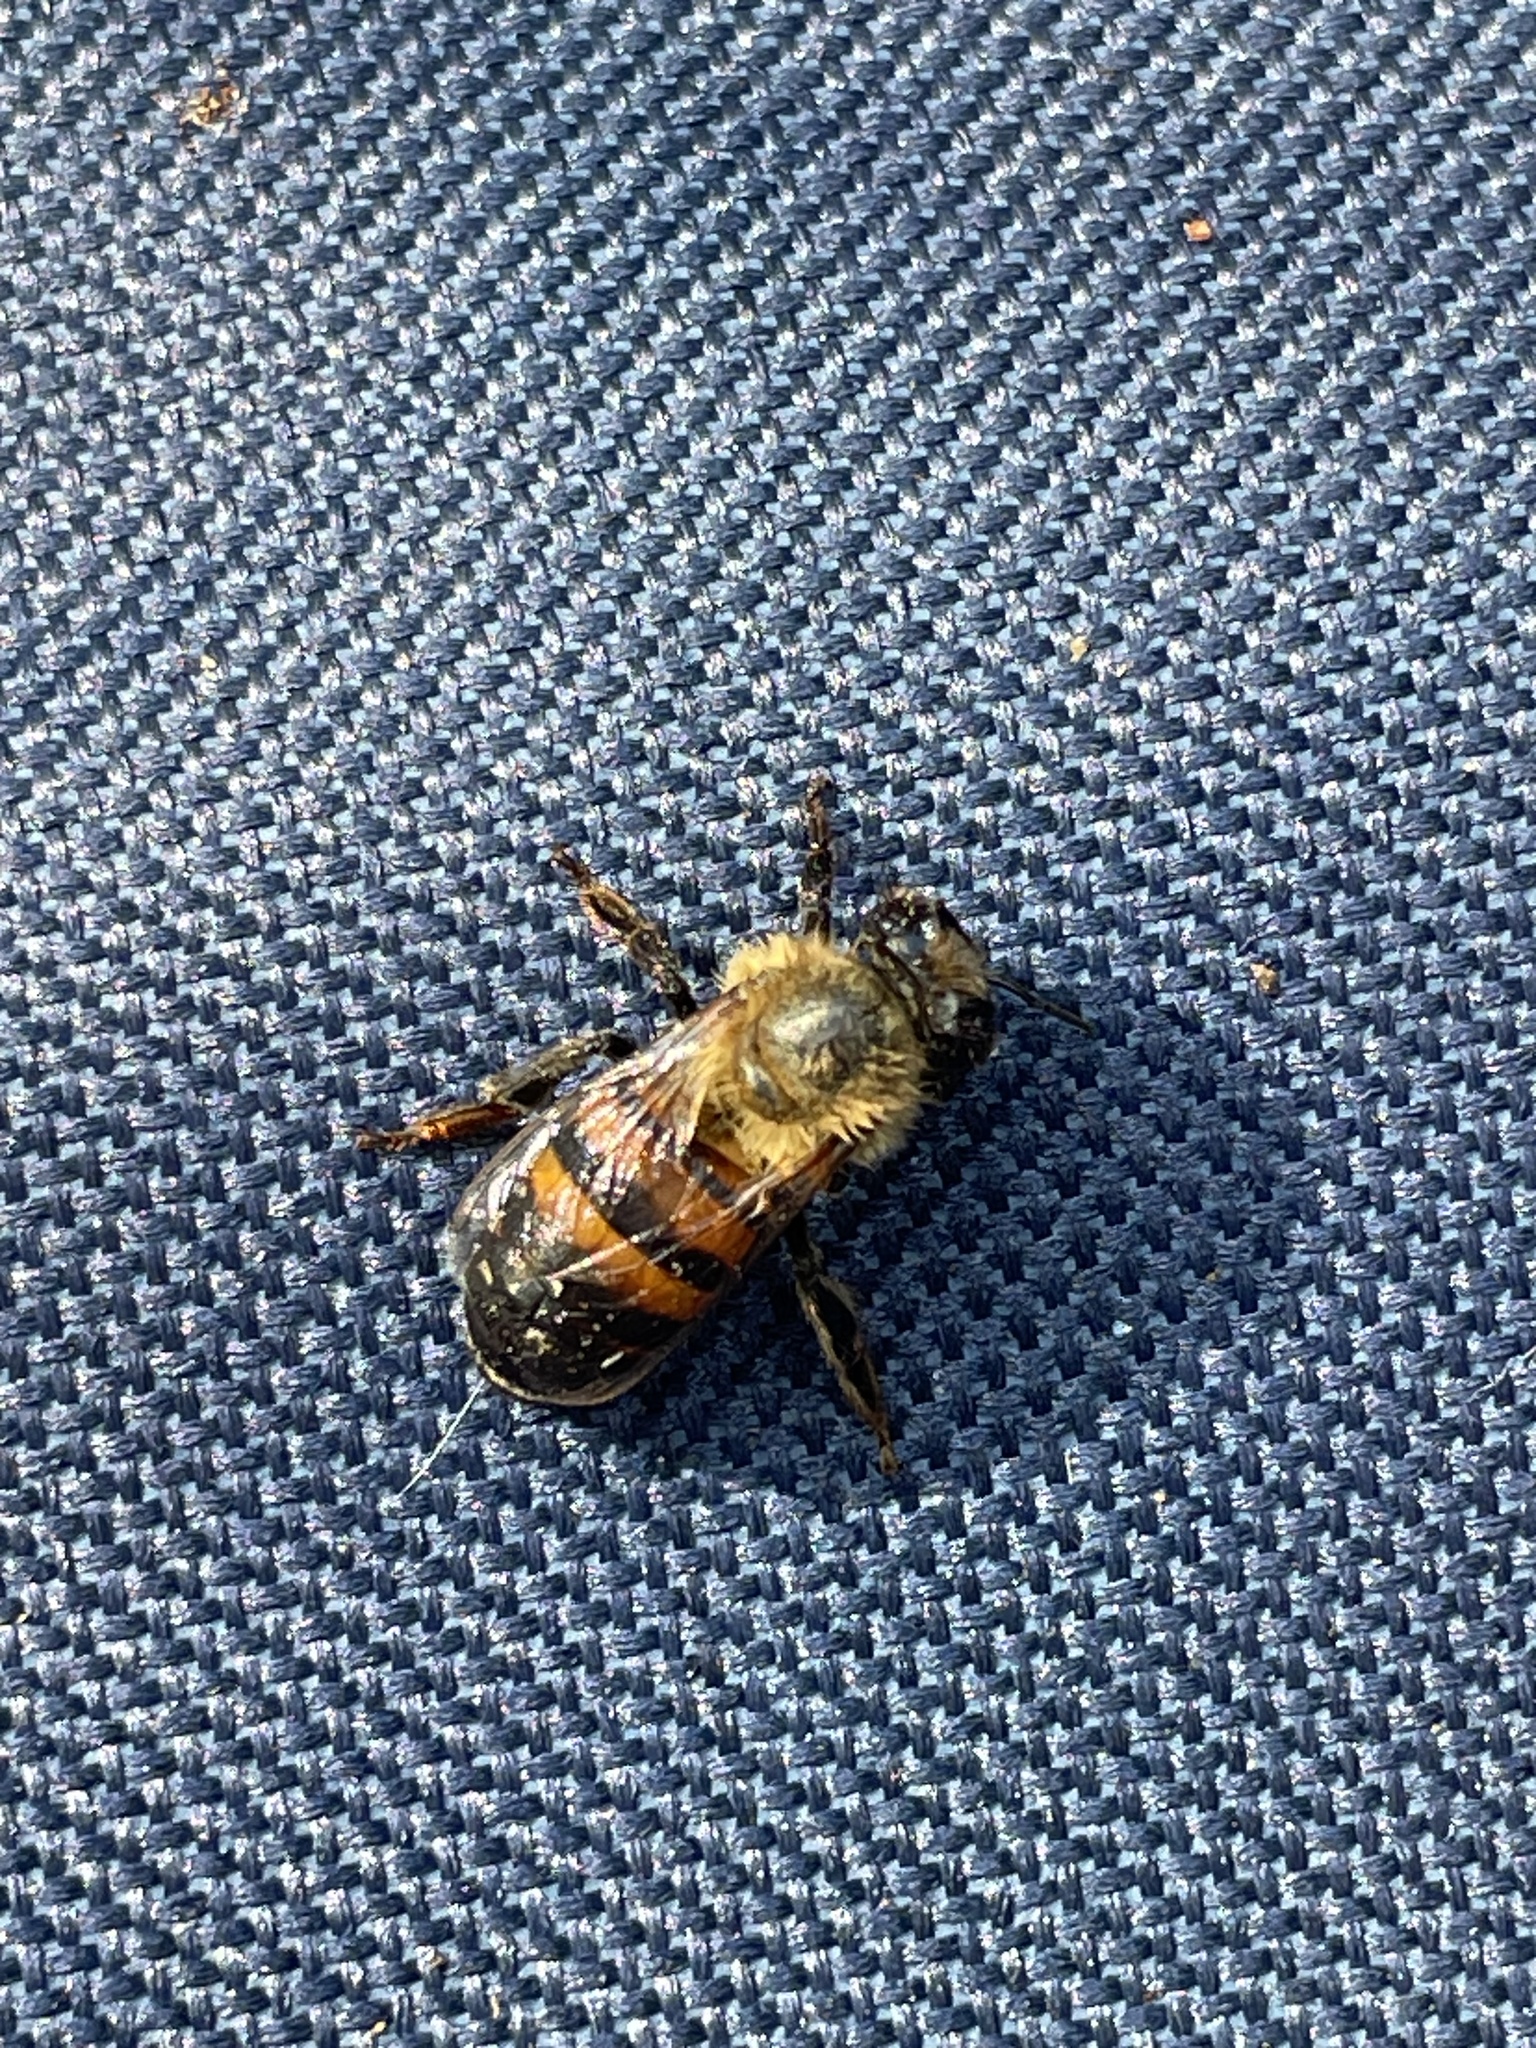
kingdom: Animalia
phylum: Arthropoda
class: Insecta
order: Hymenoptera
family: Apidae
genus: Apis
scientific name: Apis mellifera
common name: Honey bee
